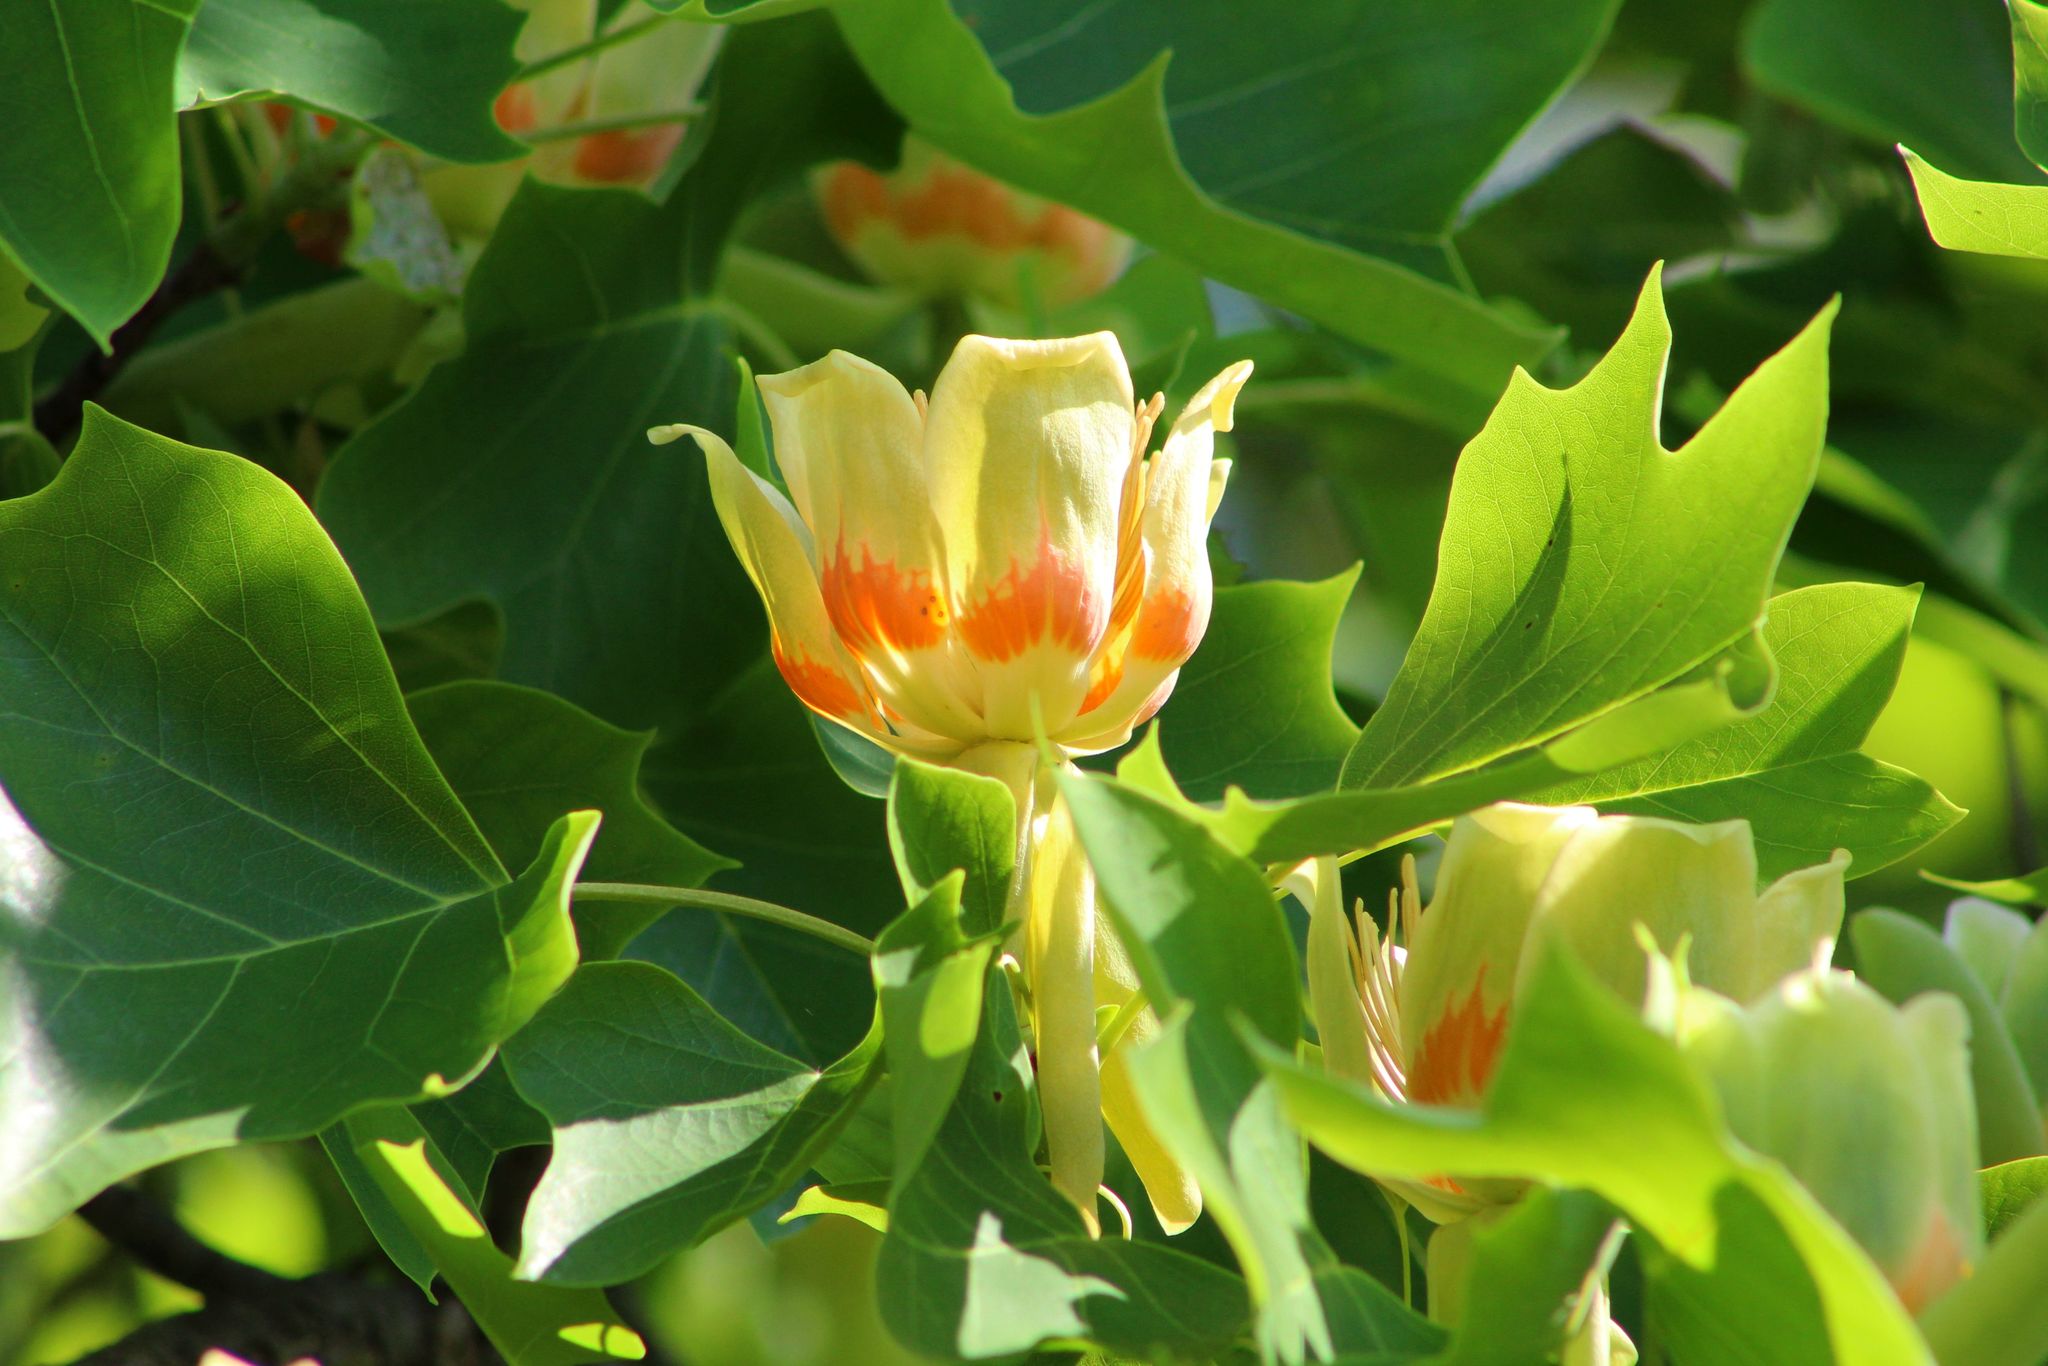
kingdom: Plantae
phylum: Tracheophyta
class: Magnoliopsida
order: Magnoliales
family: Magnoliaceae
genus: Liriodendron
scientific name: Liriodendron tulipifera
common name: Tulip tree
